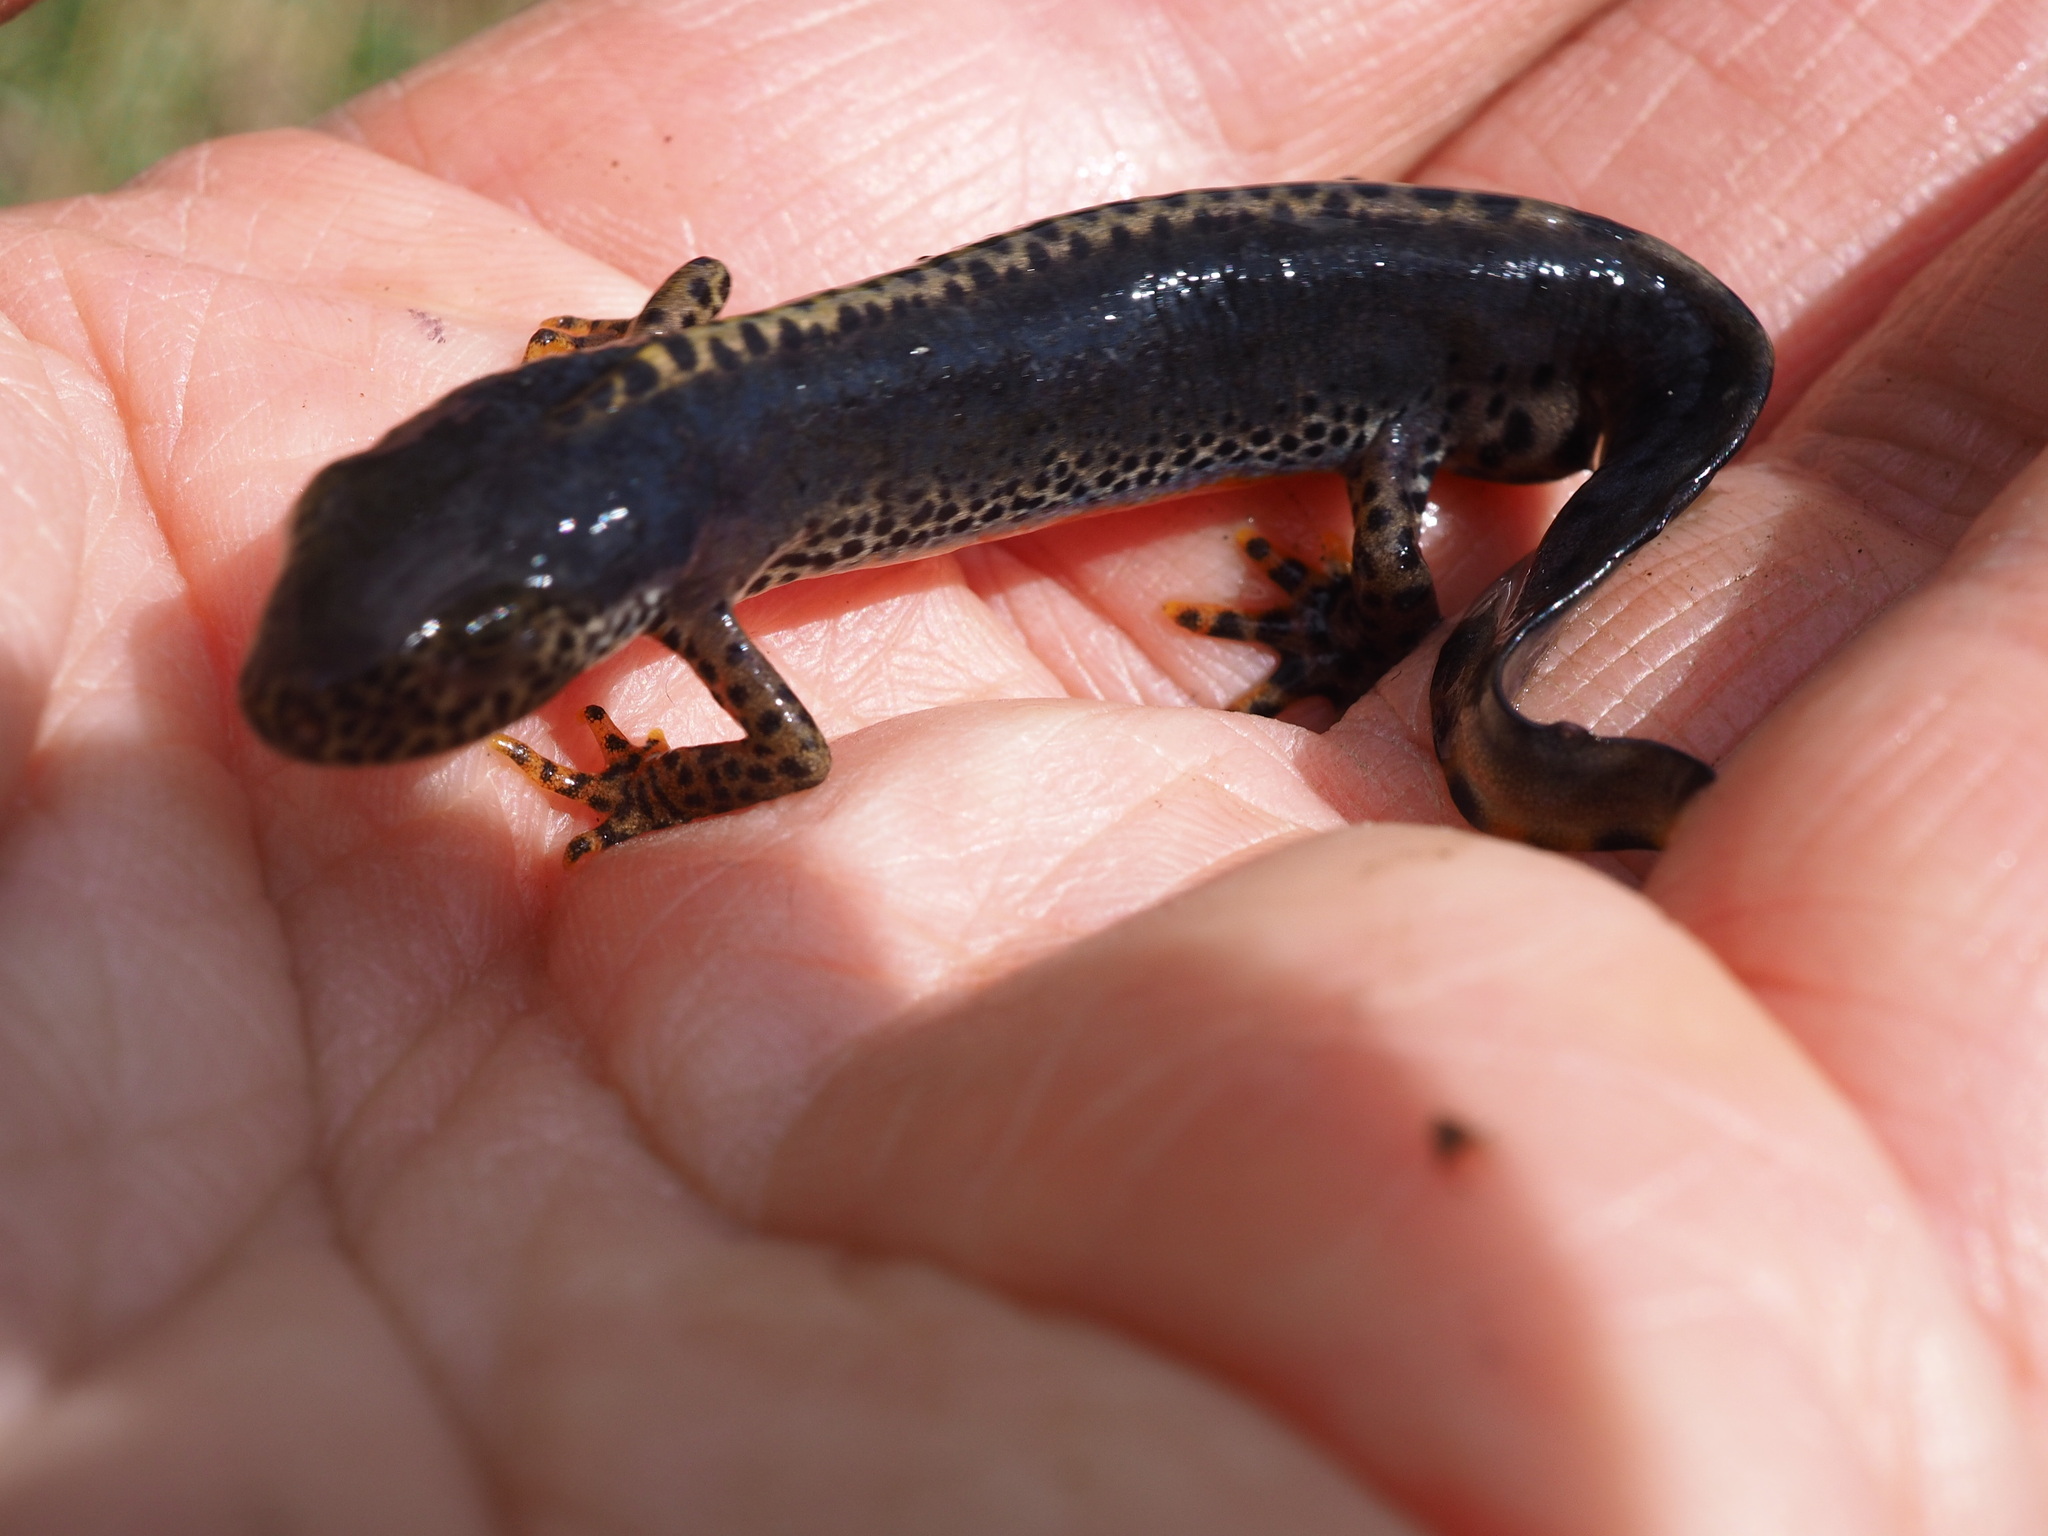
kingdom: Animalia
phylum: Chordata
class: Amphibia
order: Caudata
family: Salamandridae
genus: Ichthyosaura
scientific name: Ichthyosaura alpestris
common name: Alpine newt
